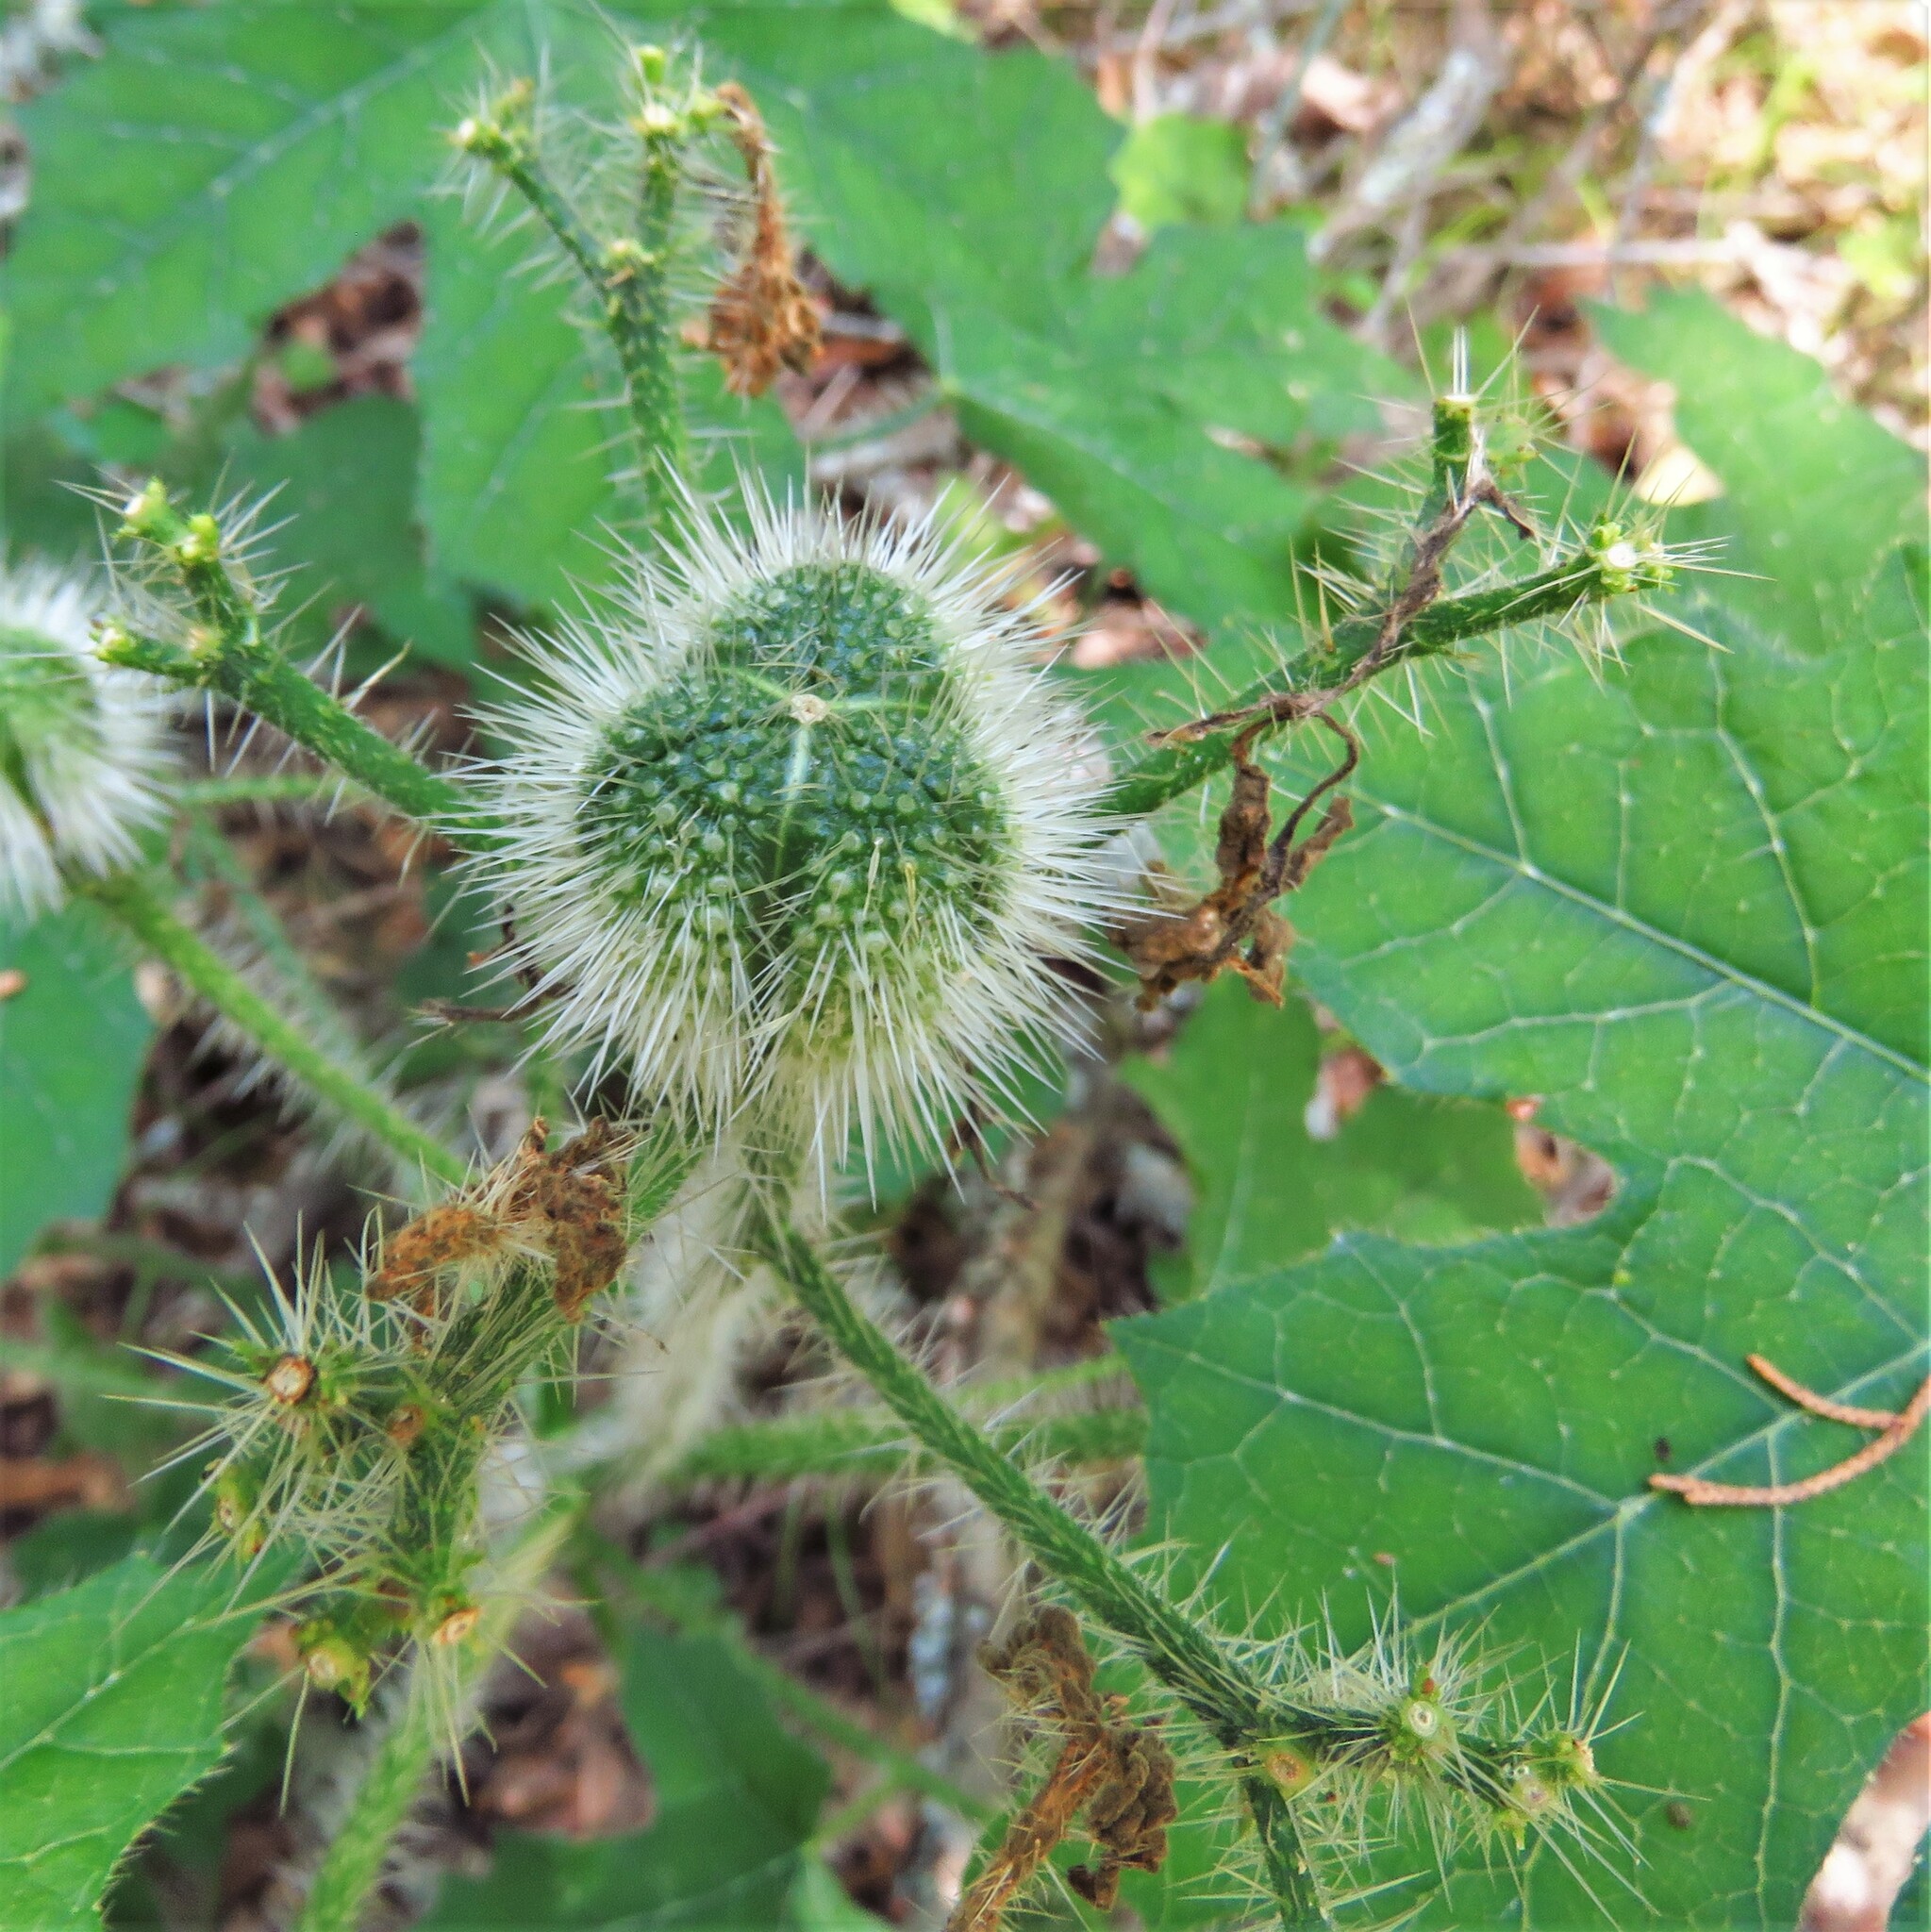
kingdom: Plantae
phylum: Tracheophyta
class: Magnoliopsida
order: Malpighiales
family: Euphorbiaceae
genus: Cnidoscolus
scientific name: Cnidoscolus texanus
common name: Texas bull-nettle
